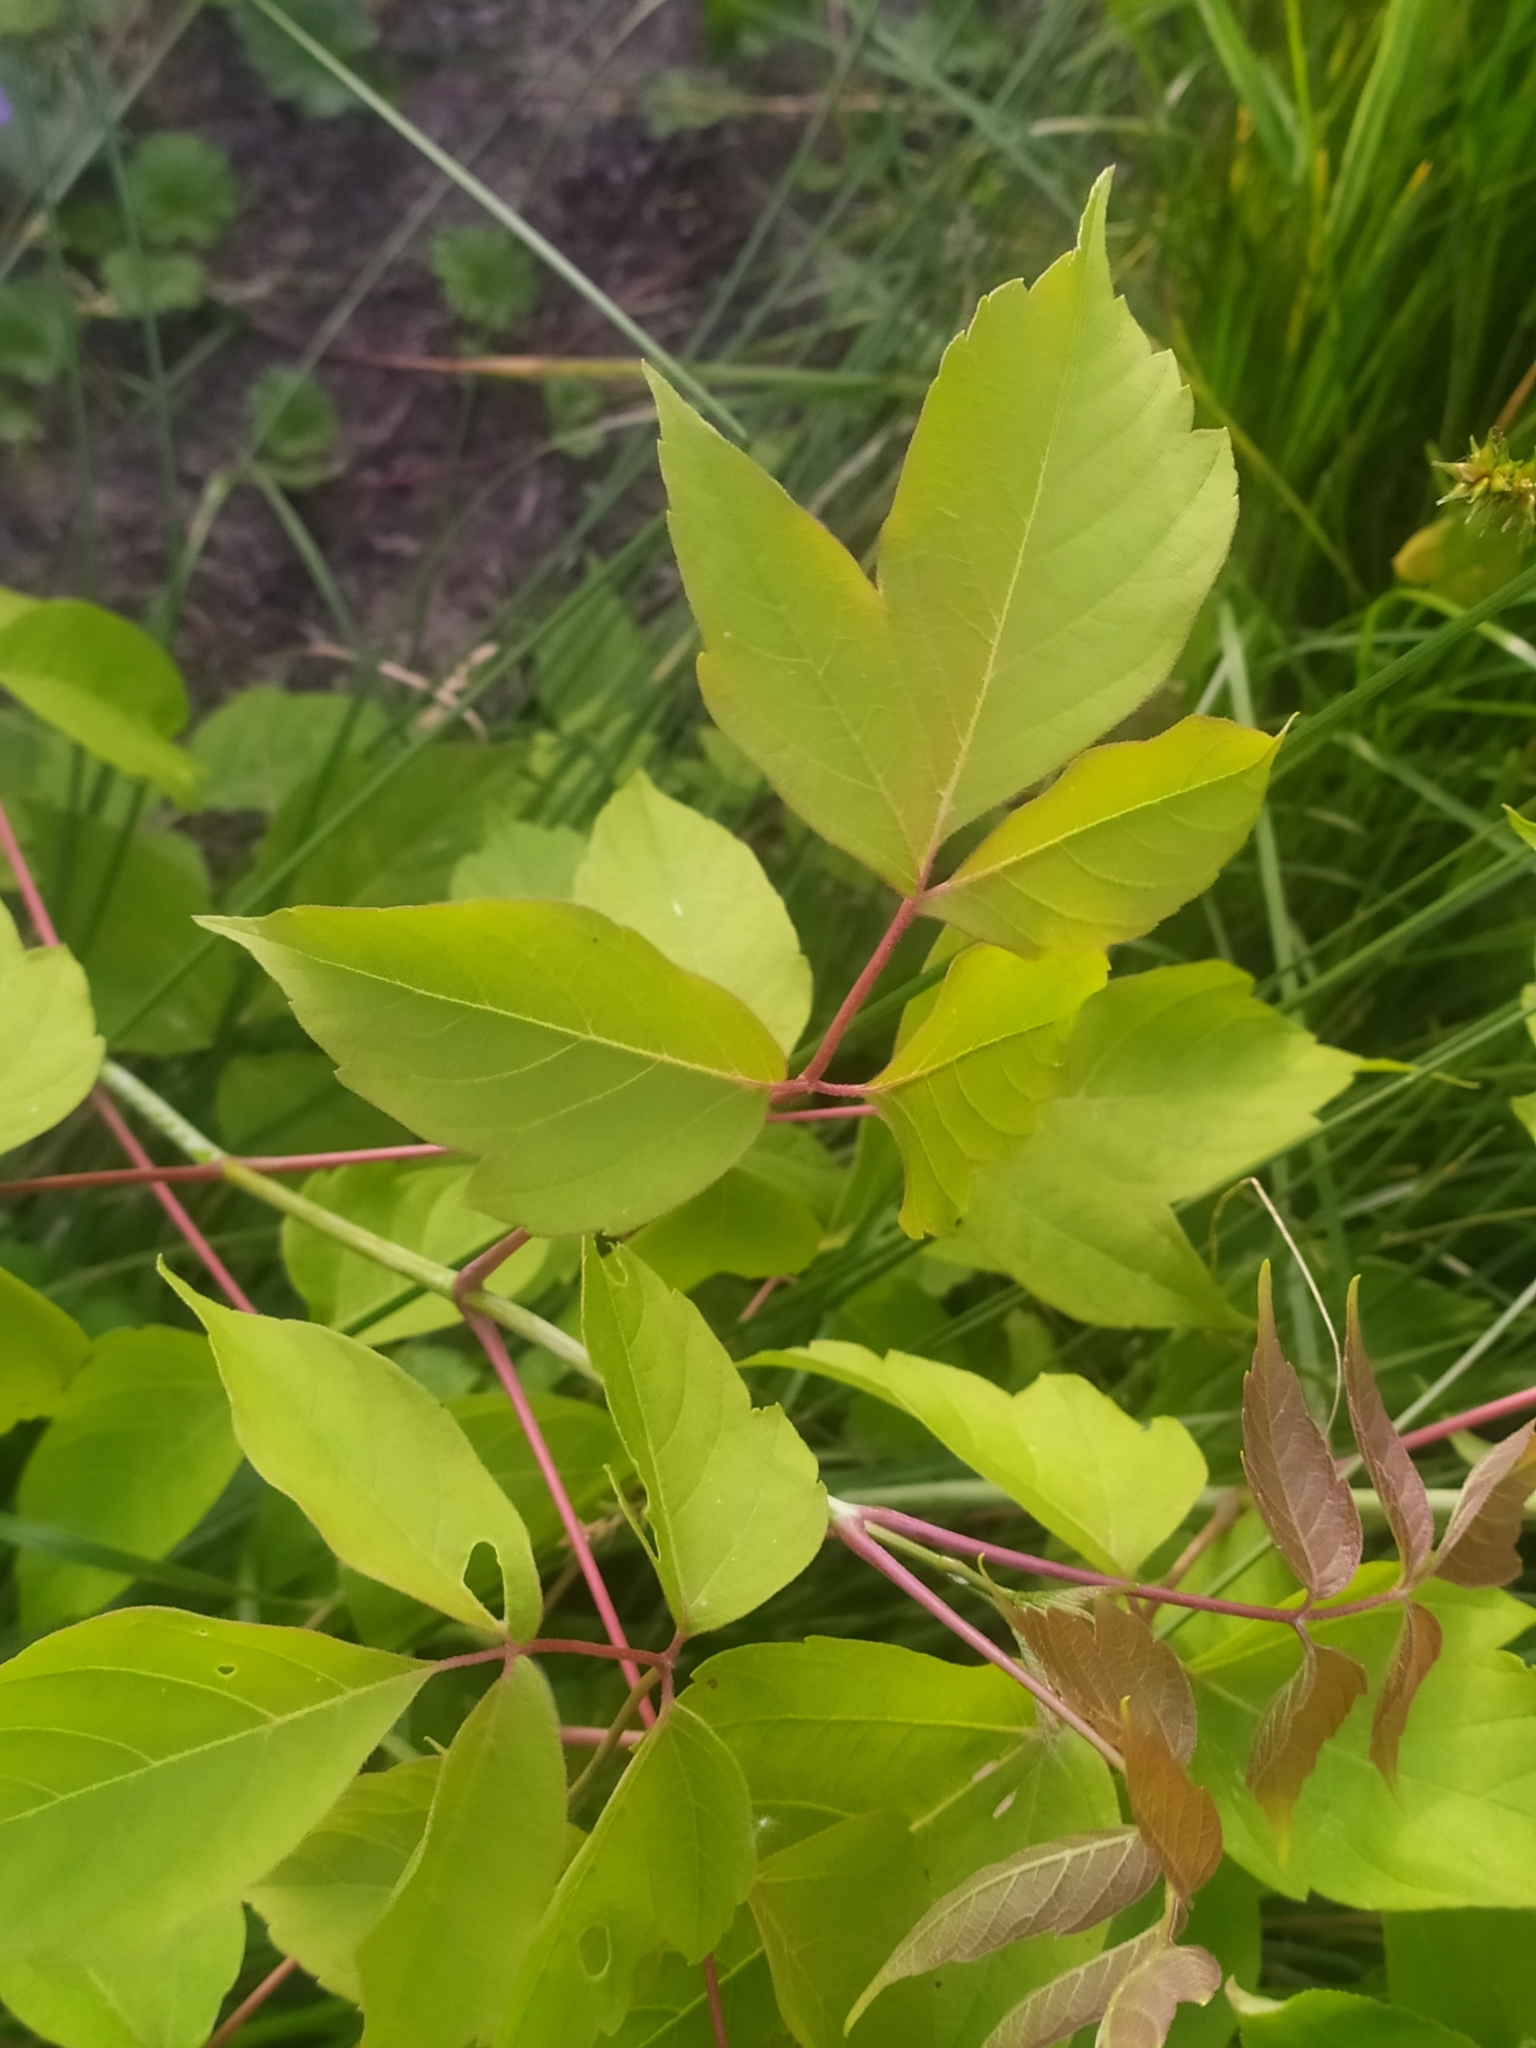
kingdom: Plantae
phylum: Tracheophyta
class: Magnoliopsida
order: Sapindales
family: Sapindaceae
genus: Acer
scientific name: Acer negundo
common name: Ashleaf maple
